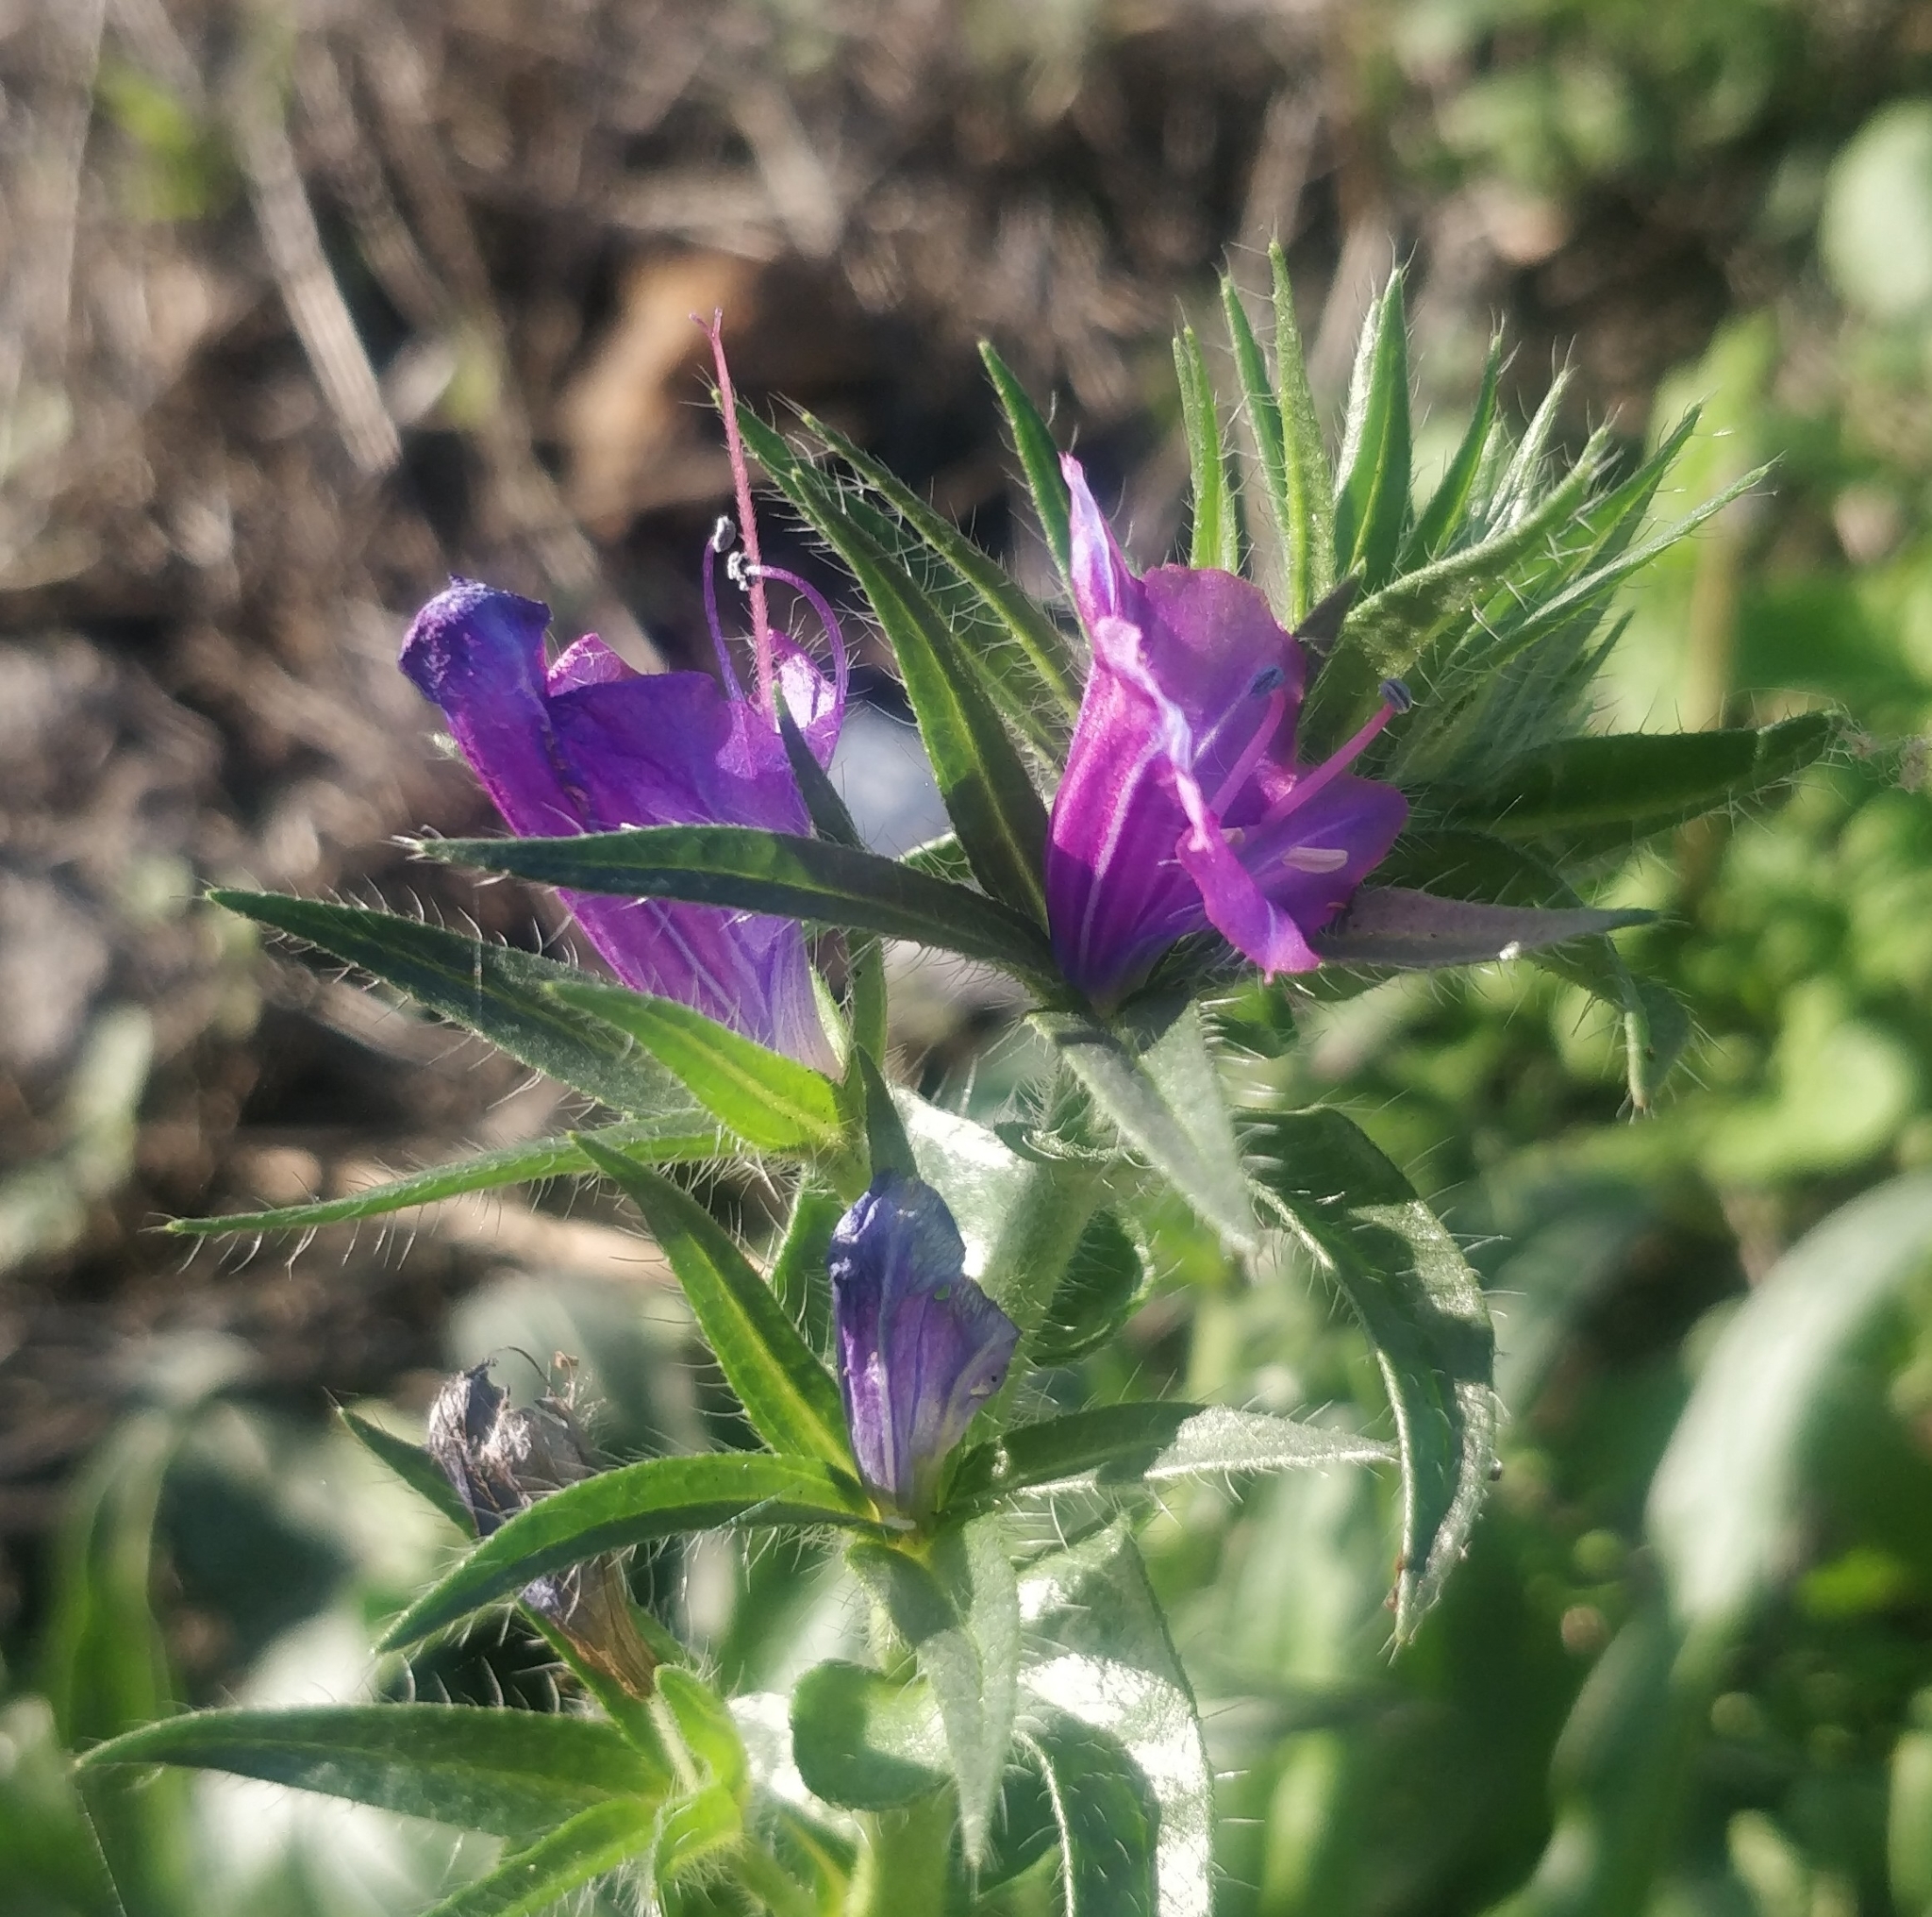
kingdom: Plantae
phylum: Tracheophyta
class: Magnoliopsida
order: Boraginales
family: Boraginaceae
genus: Echium
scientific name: Echium plantagineum
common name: Purple viper's-bugloss
